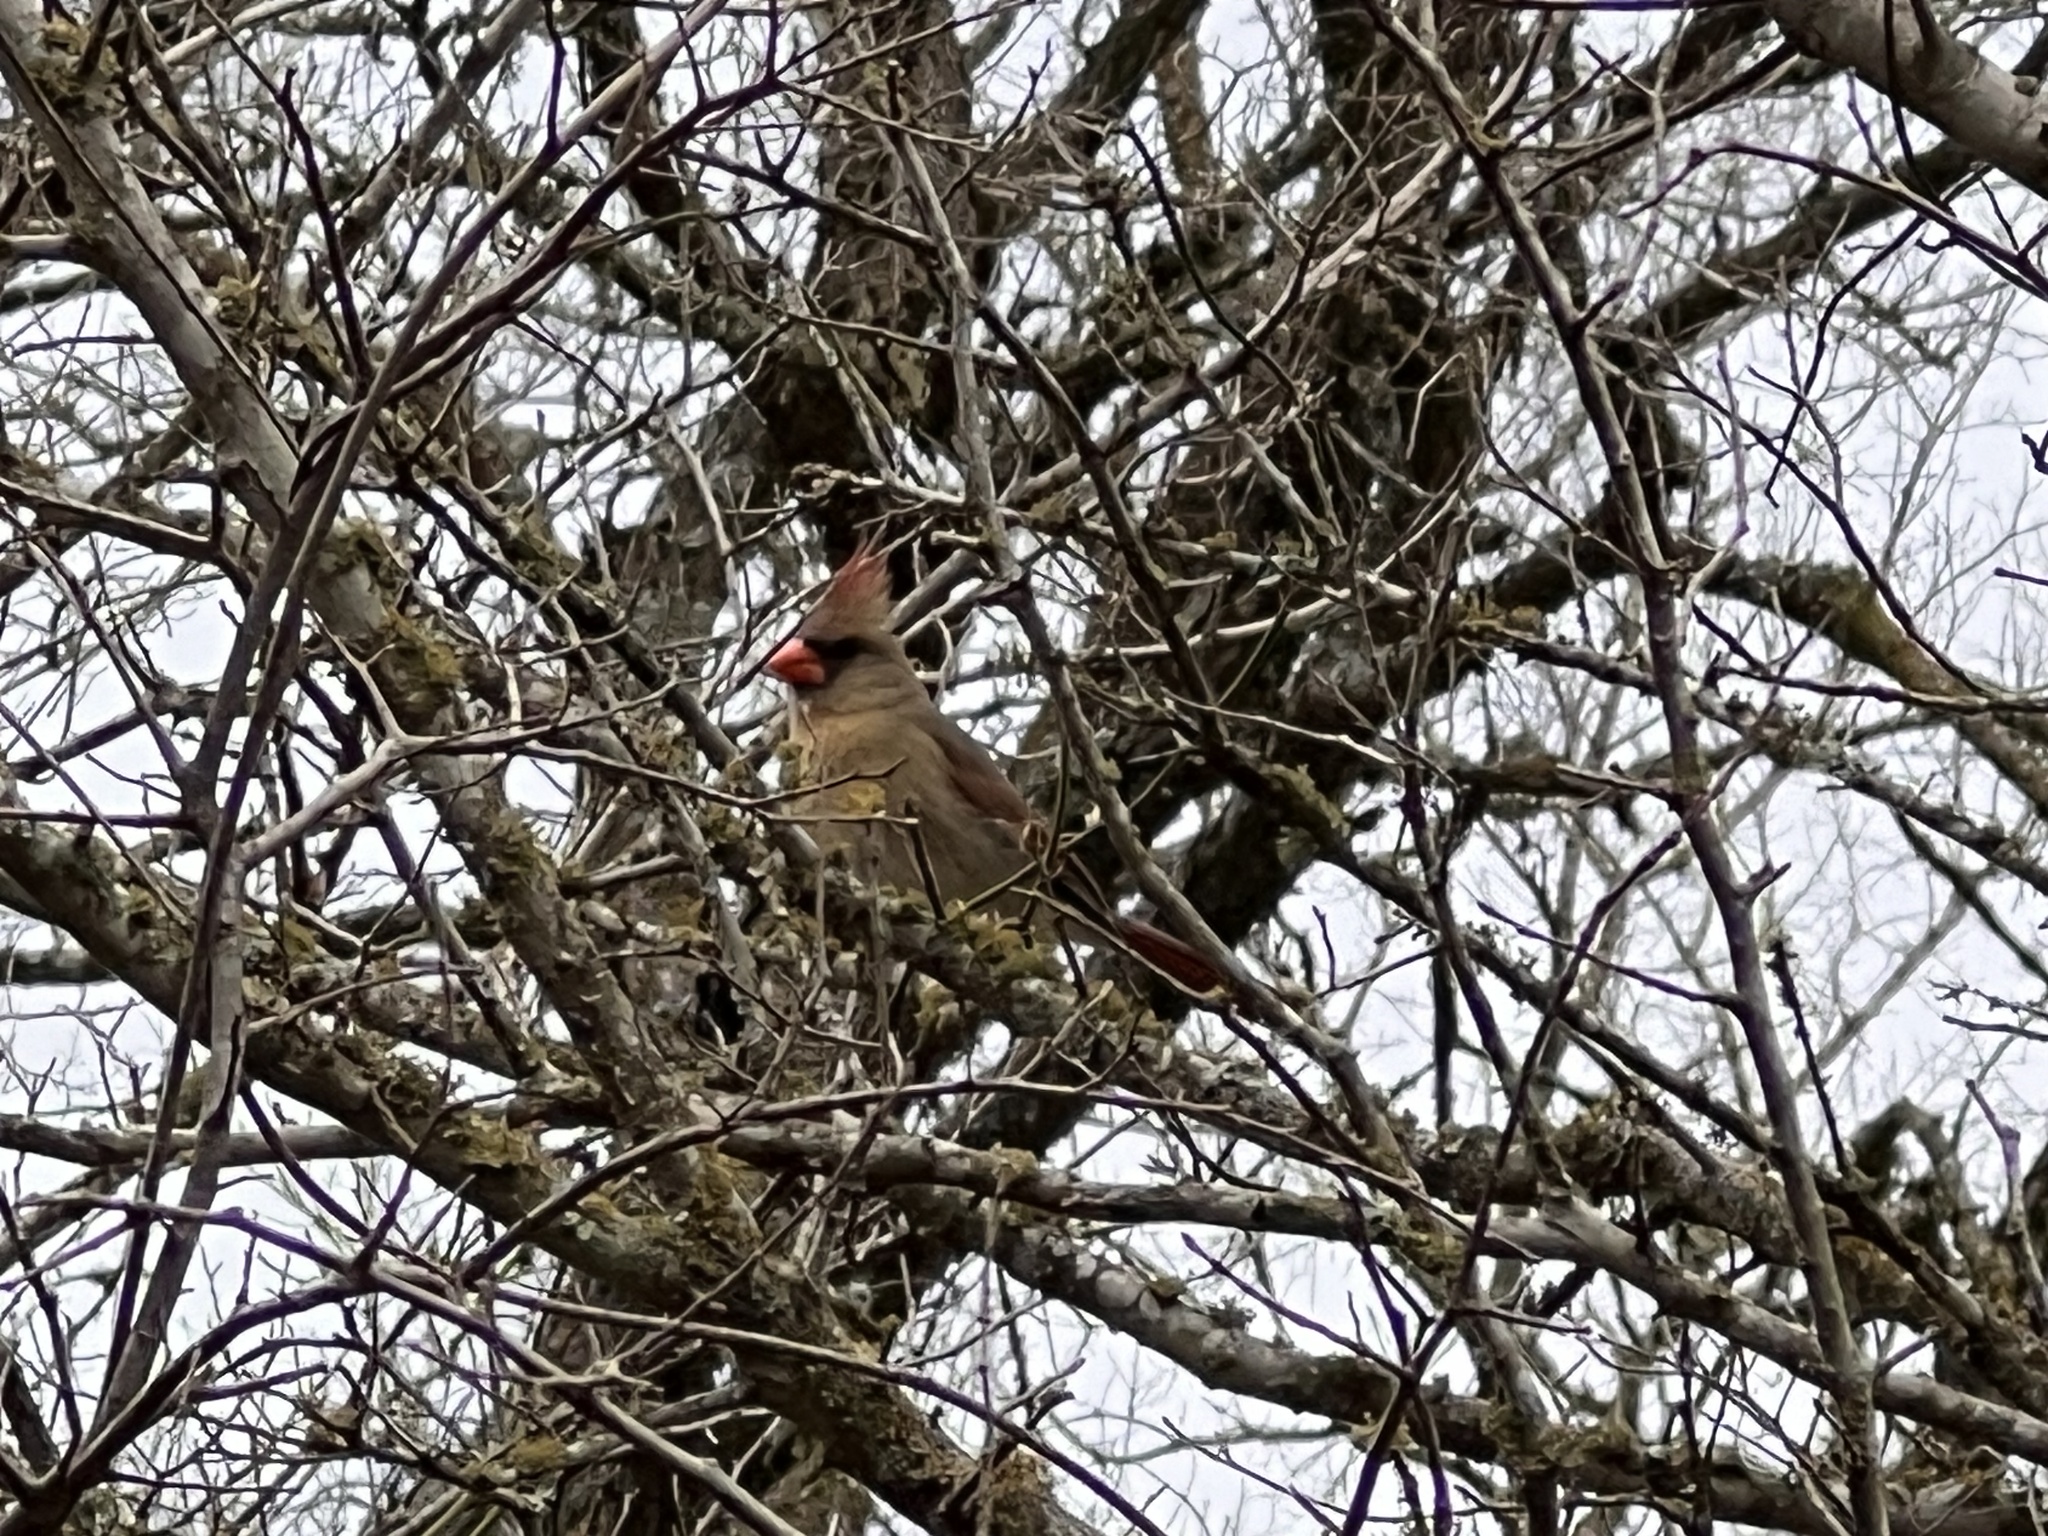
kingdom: Animalia
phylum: Chordata
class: Aves
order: Passeriformes
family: Cardinalidae
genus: Cardinalis
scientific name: Cardinalis cardinalis
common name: Northern cardinal
